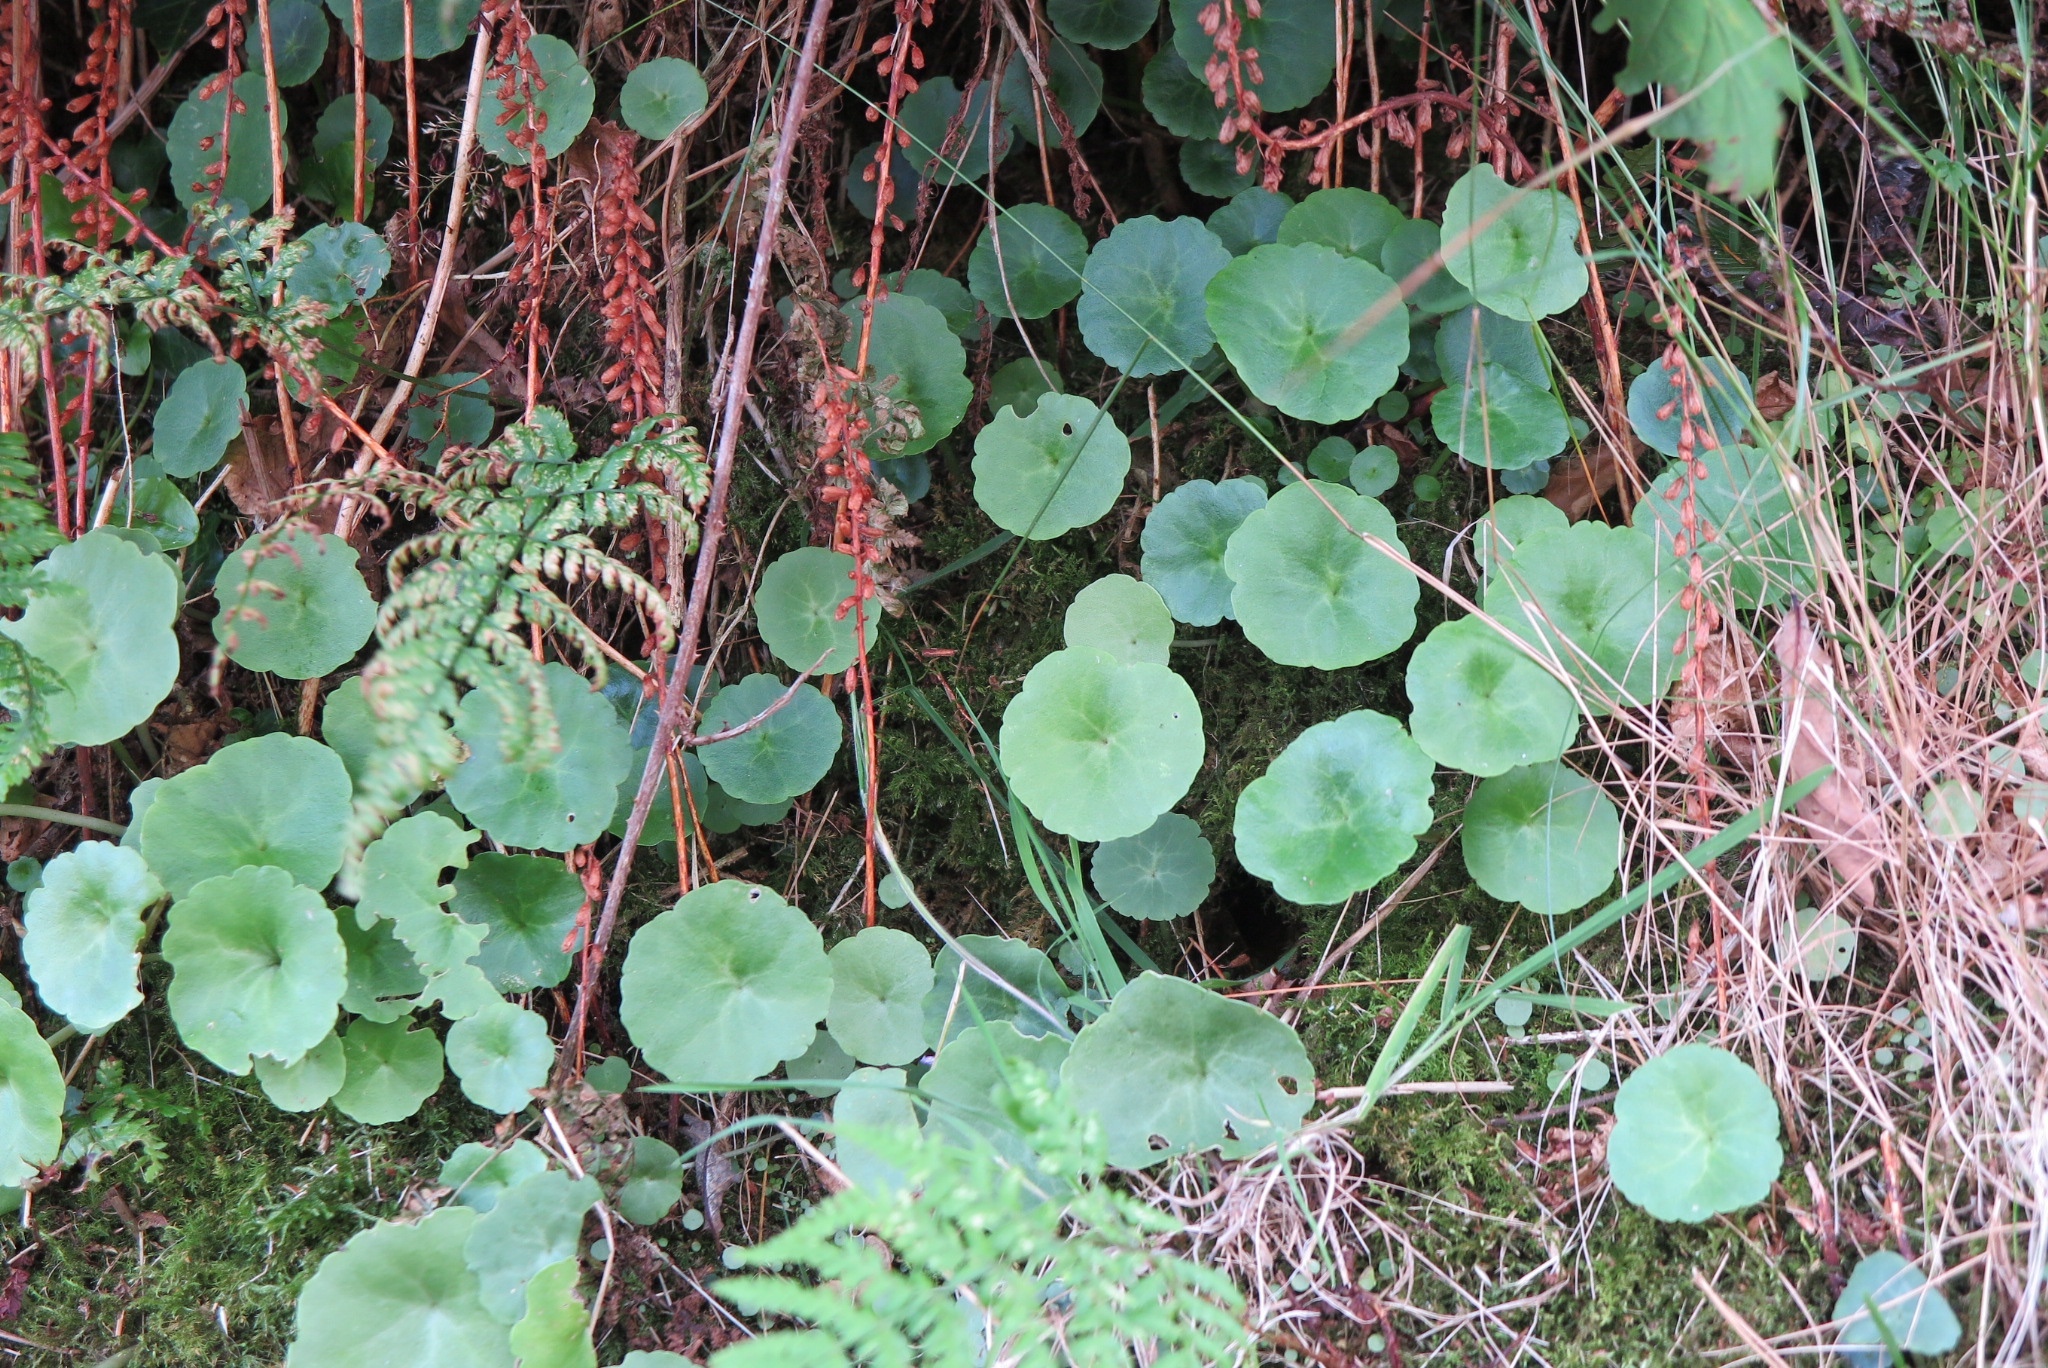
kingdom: Plantae
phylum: Tracheophyta
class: Magnoliopsida
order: Saxifragales
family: Crassulaceae
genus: Umbilicus
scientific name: Umbilicus rupestris
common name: Navelwort
